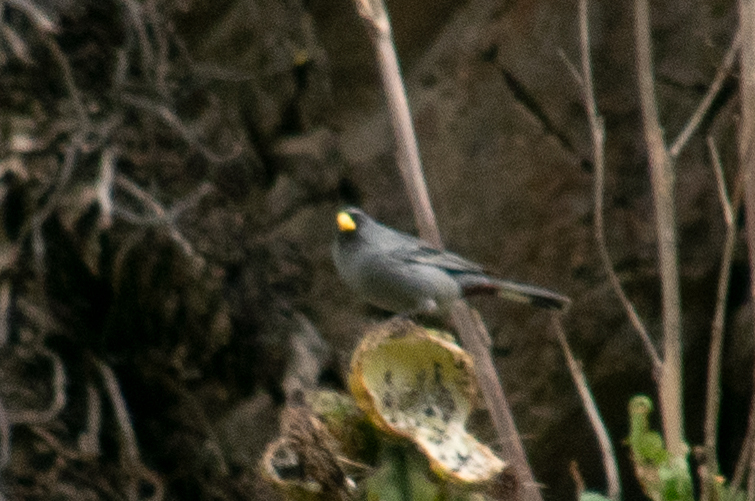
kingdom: Animalia
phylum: Chordata
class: Aves
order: Passeriformes
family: Thraupidae
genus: Catamenia
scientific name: Catamenia analis
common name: Band-tailed seedeater
